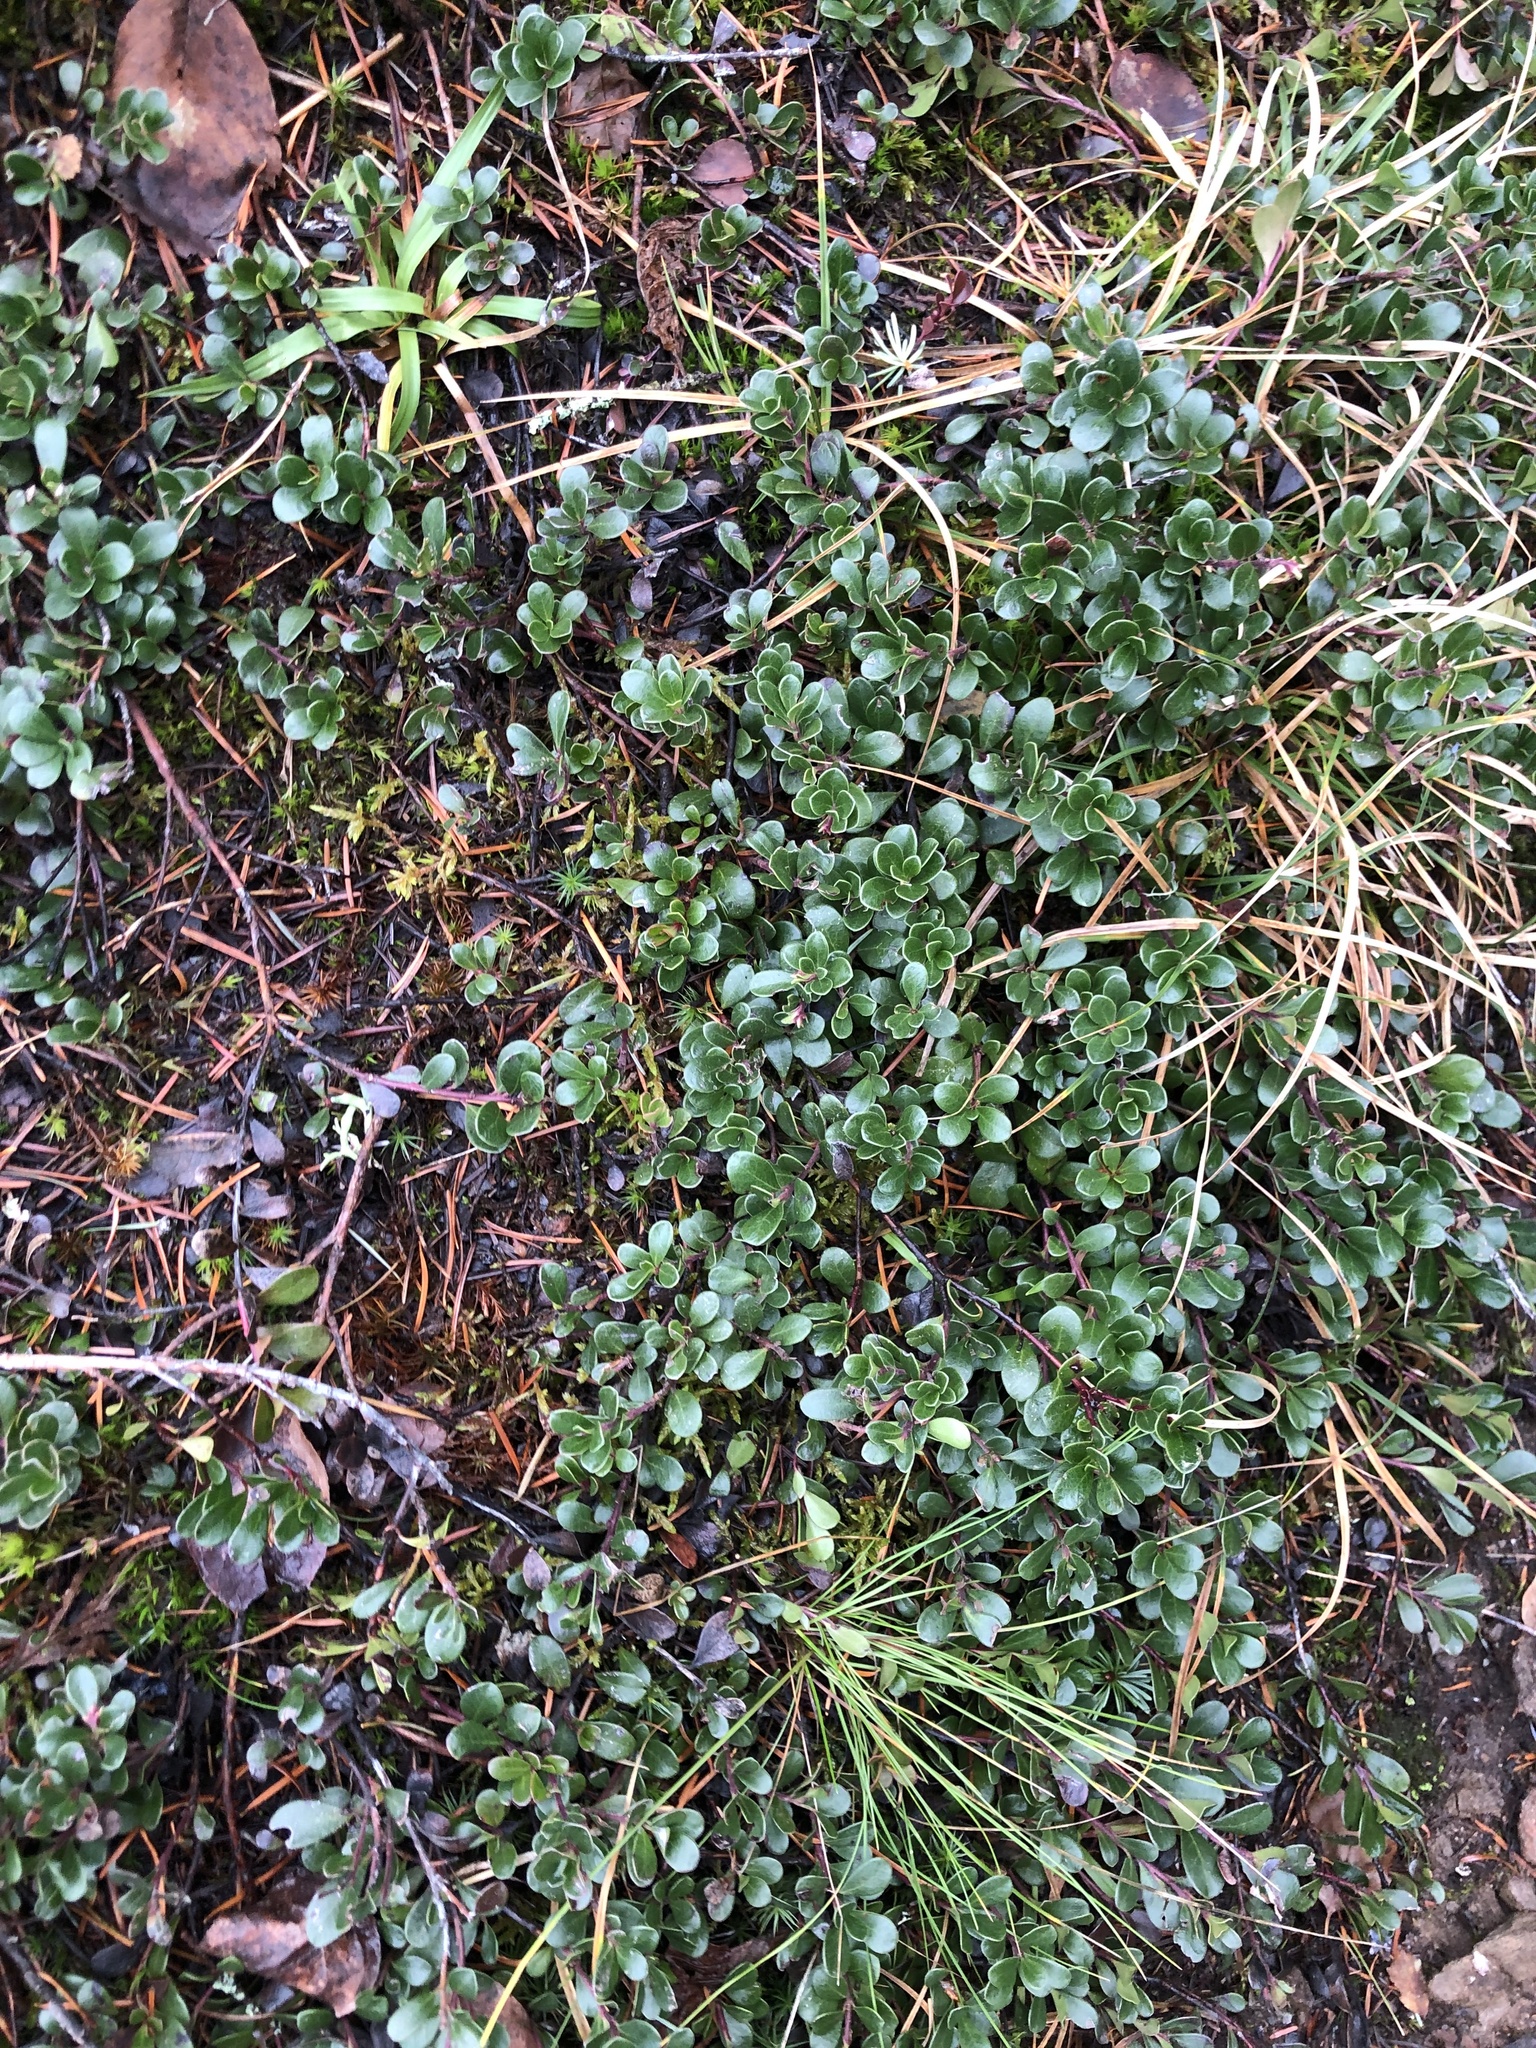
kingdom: Plantae
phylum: Tracheophyta
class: Magnoliopsida
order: Ericales
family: Ericaceae
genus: Arctostaphylos
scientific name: Arctostaphylos uva-ursi
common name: Bearberry
